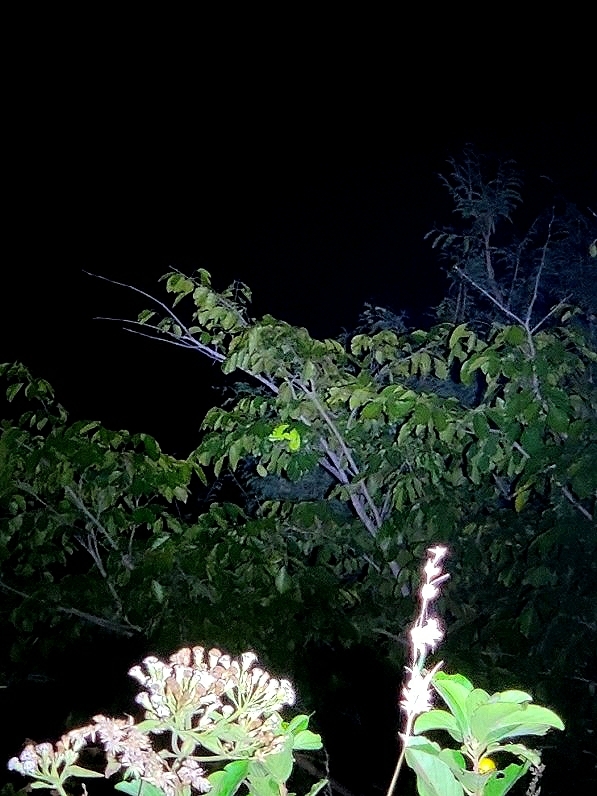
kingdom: Animalia
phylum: Chordata
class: Squamata
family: Chamaeleonidae
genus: Chamaeleo
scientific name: Chamaeleo zeylanicus
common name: Indian chameleon
